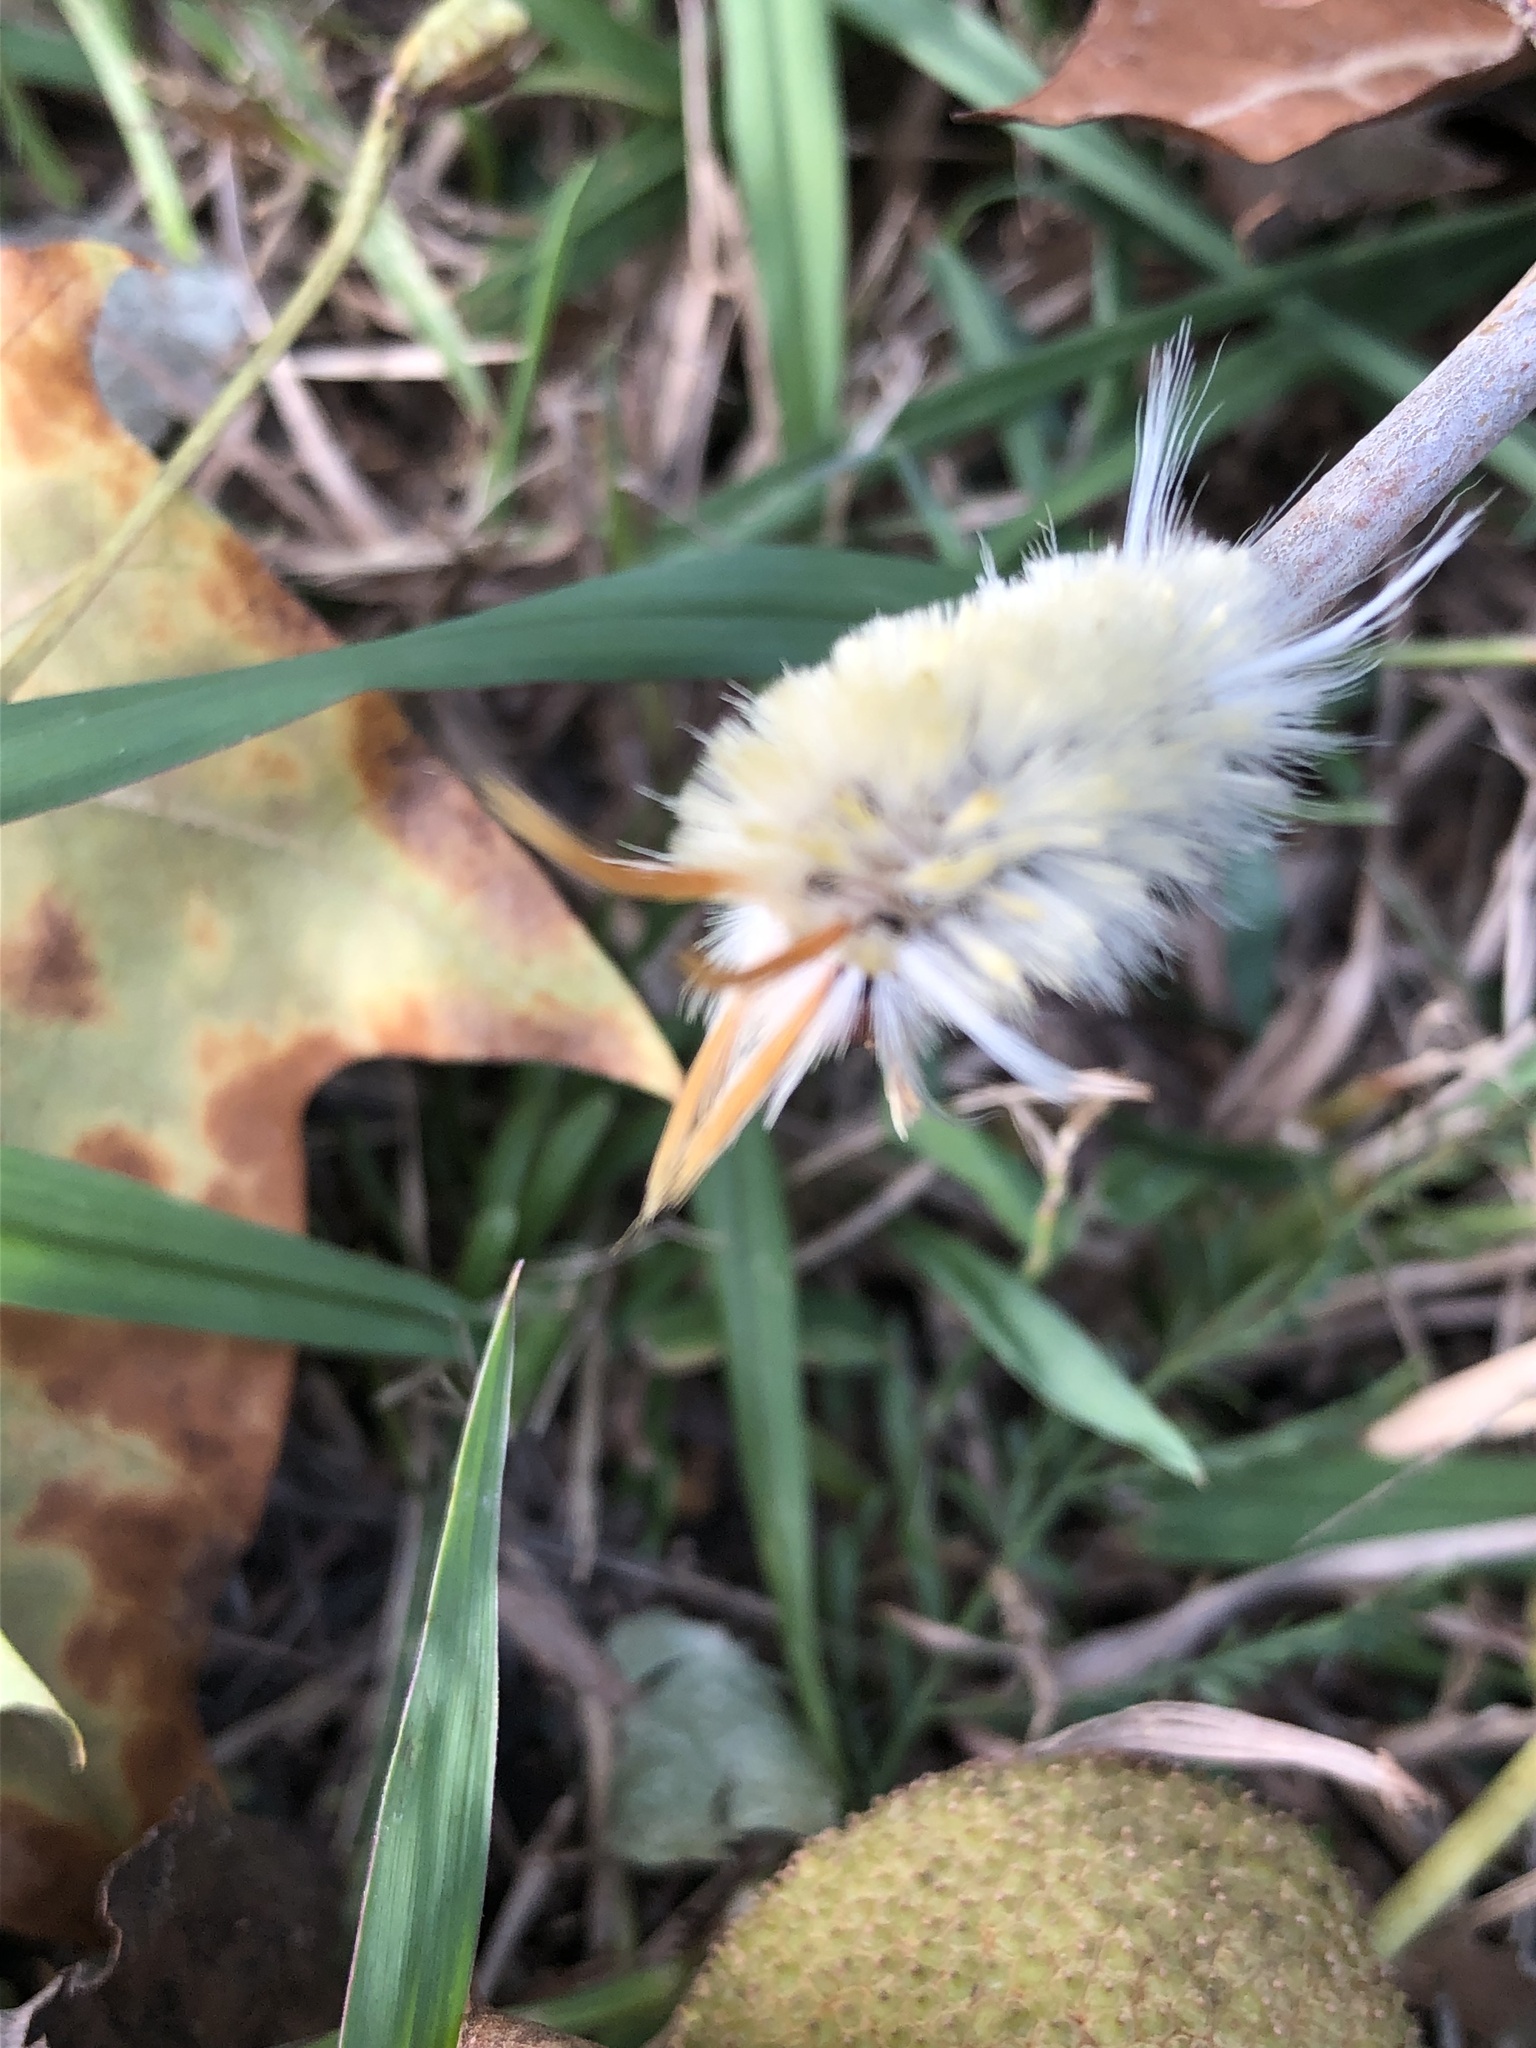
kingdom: Animalia
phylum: Arthropoda
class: Insecta
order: Lepidoptera
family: Erebidae
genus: Halysidota
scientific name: Halysidota harrisii
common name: Sycamore tussock moth
